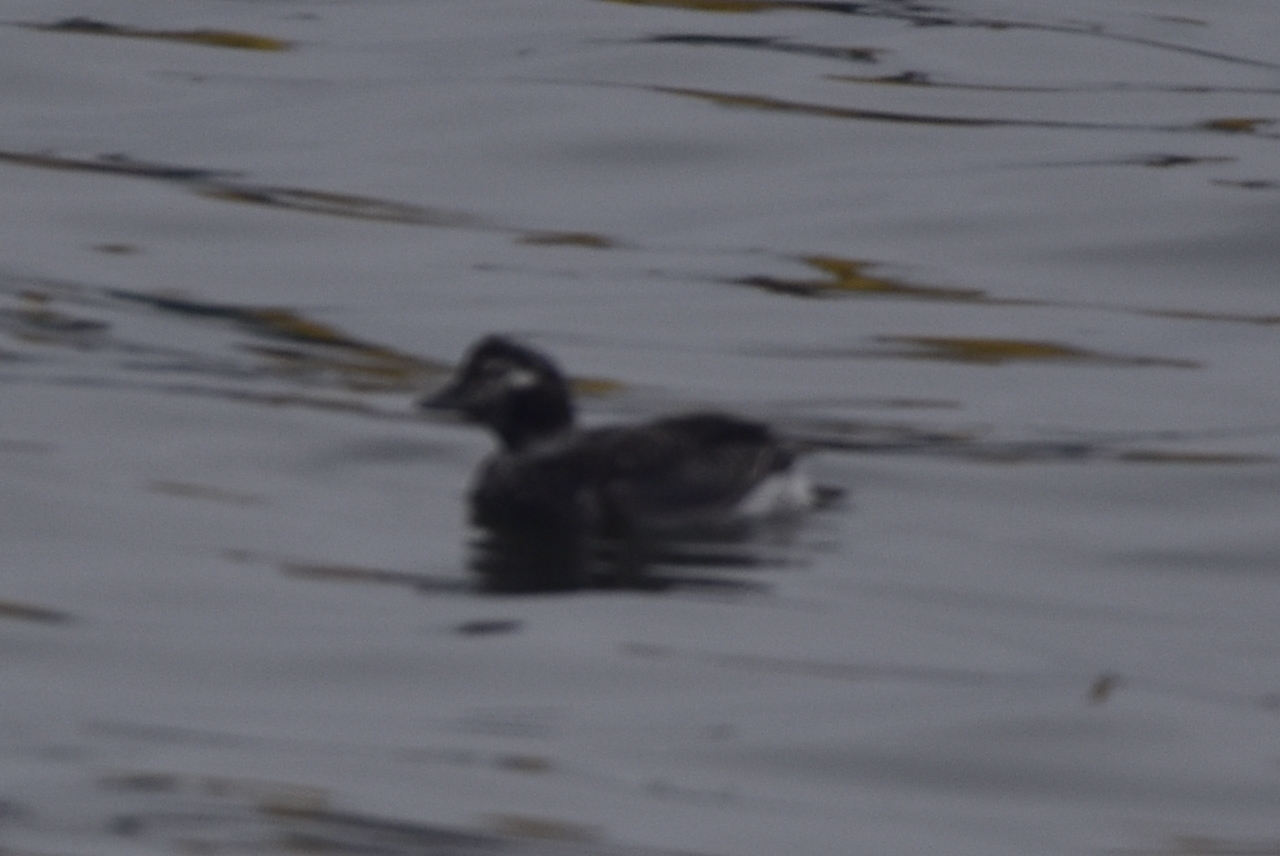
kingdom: Animalia
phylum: Chordata
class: Aves
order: Anseriformes
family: Anatidae
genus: Clangula
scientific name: Clangula hyemalis
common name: Long-tailed duck
